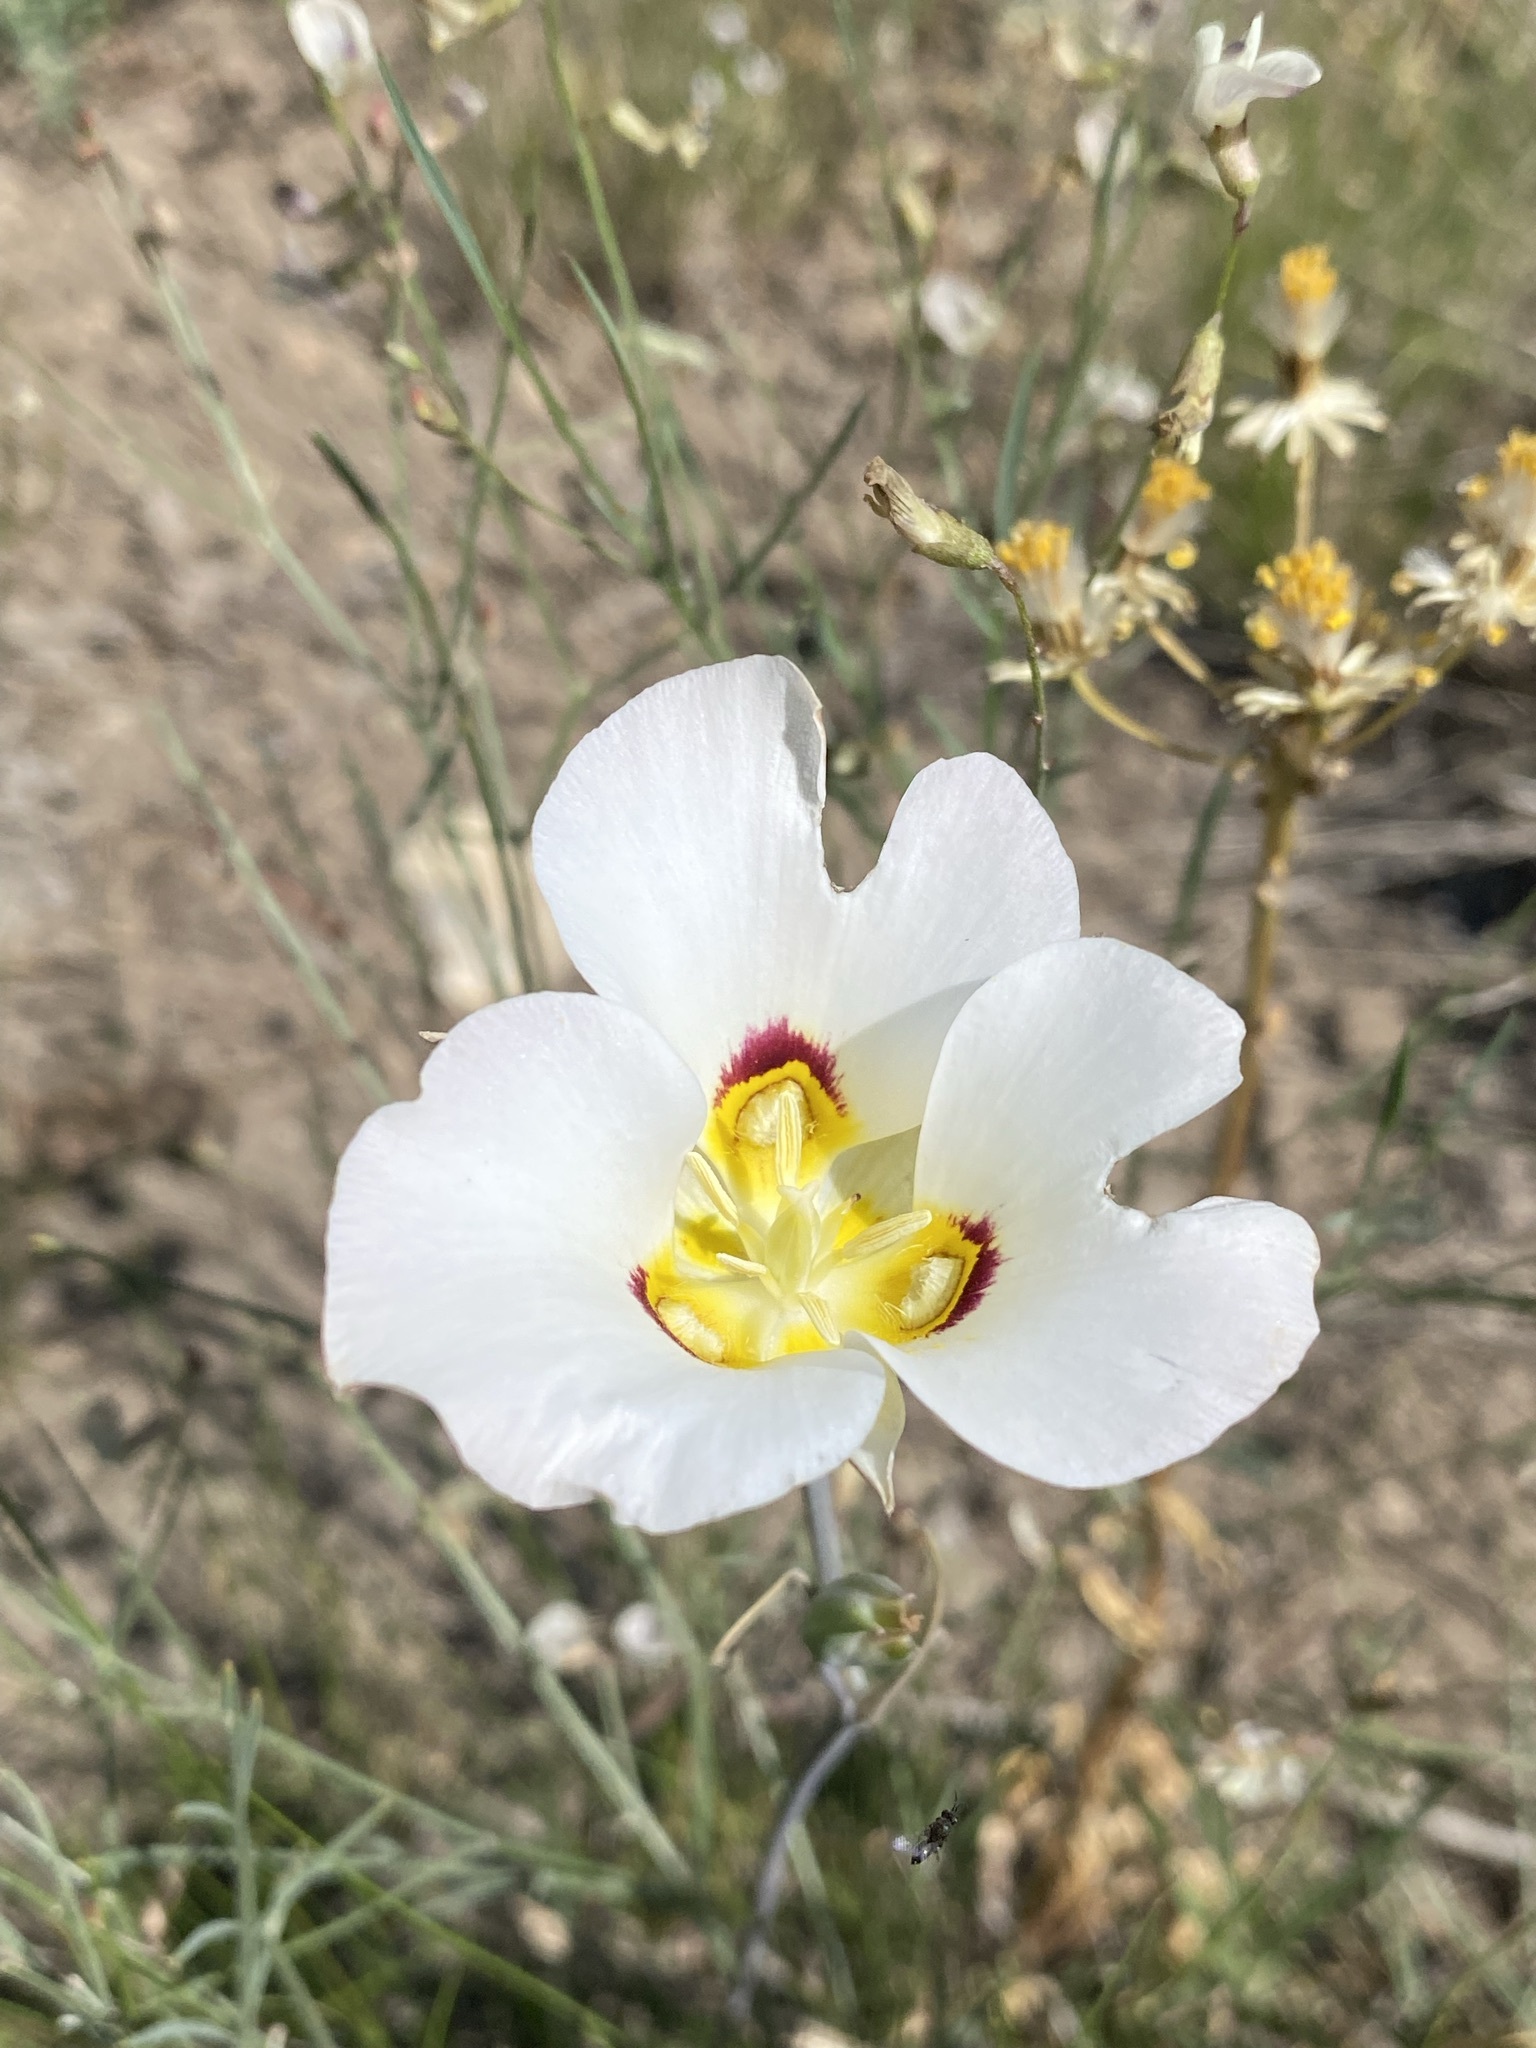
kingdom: Plantae
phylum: Tracheophyta
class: Liliopsida
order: Liliales
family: Liliaceae
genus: Calochortus
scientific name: Calochortus nuttallii
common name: Sego-lily
